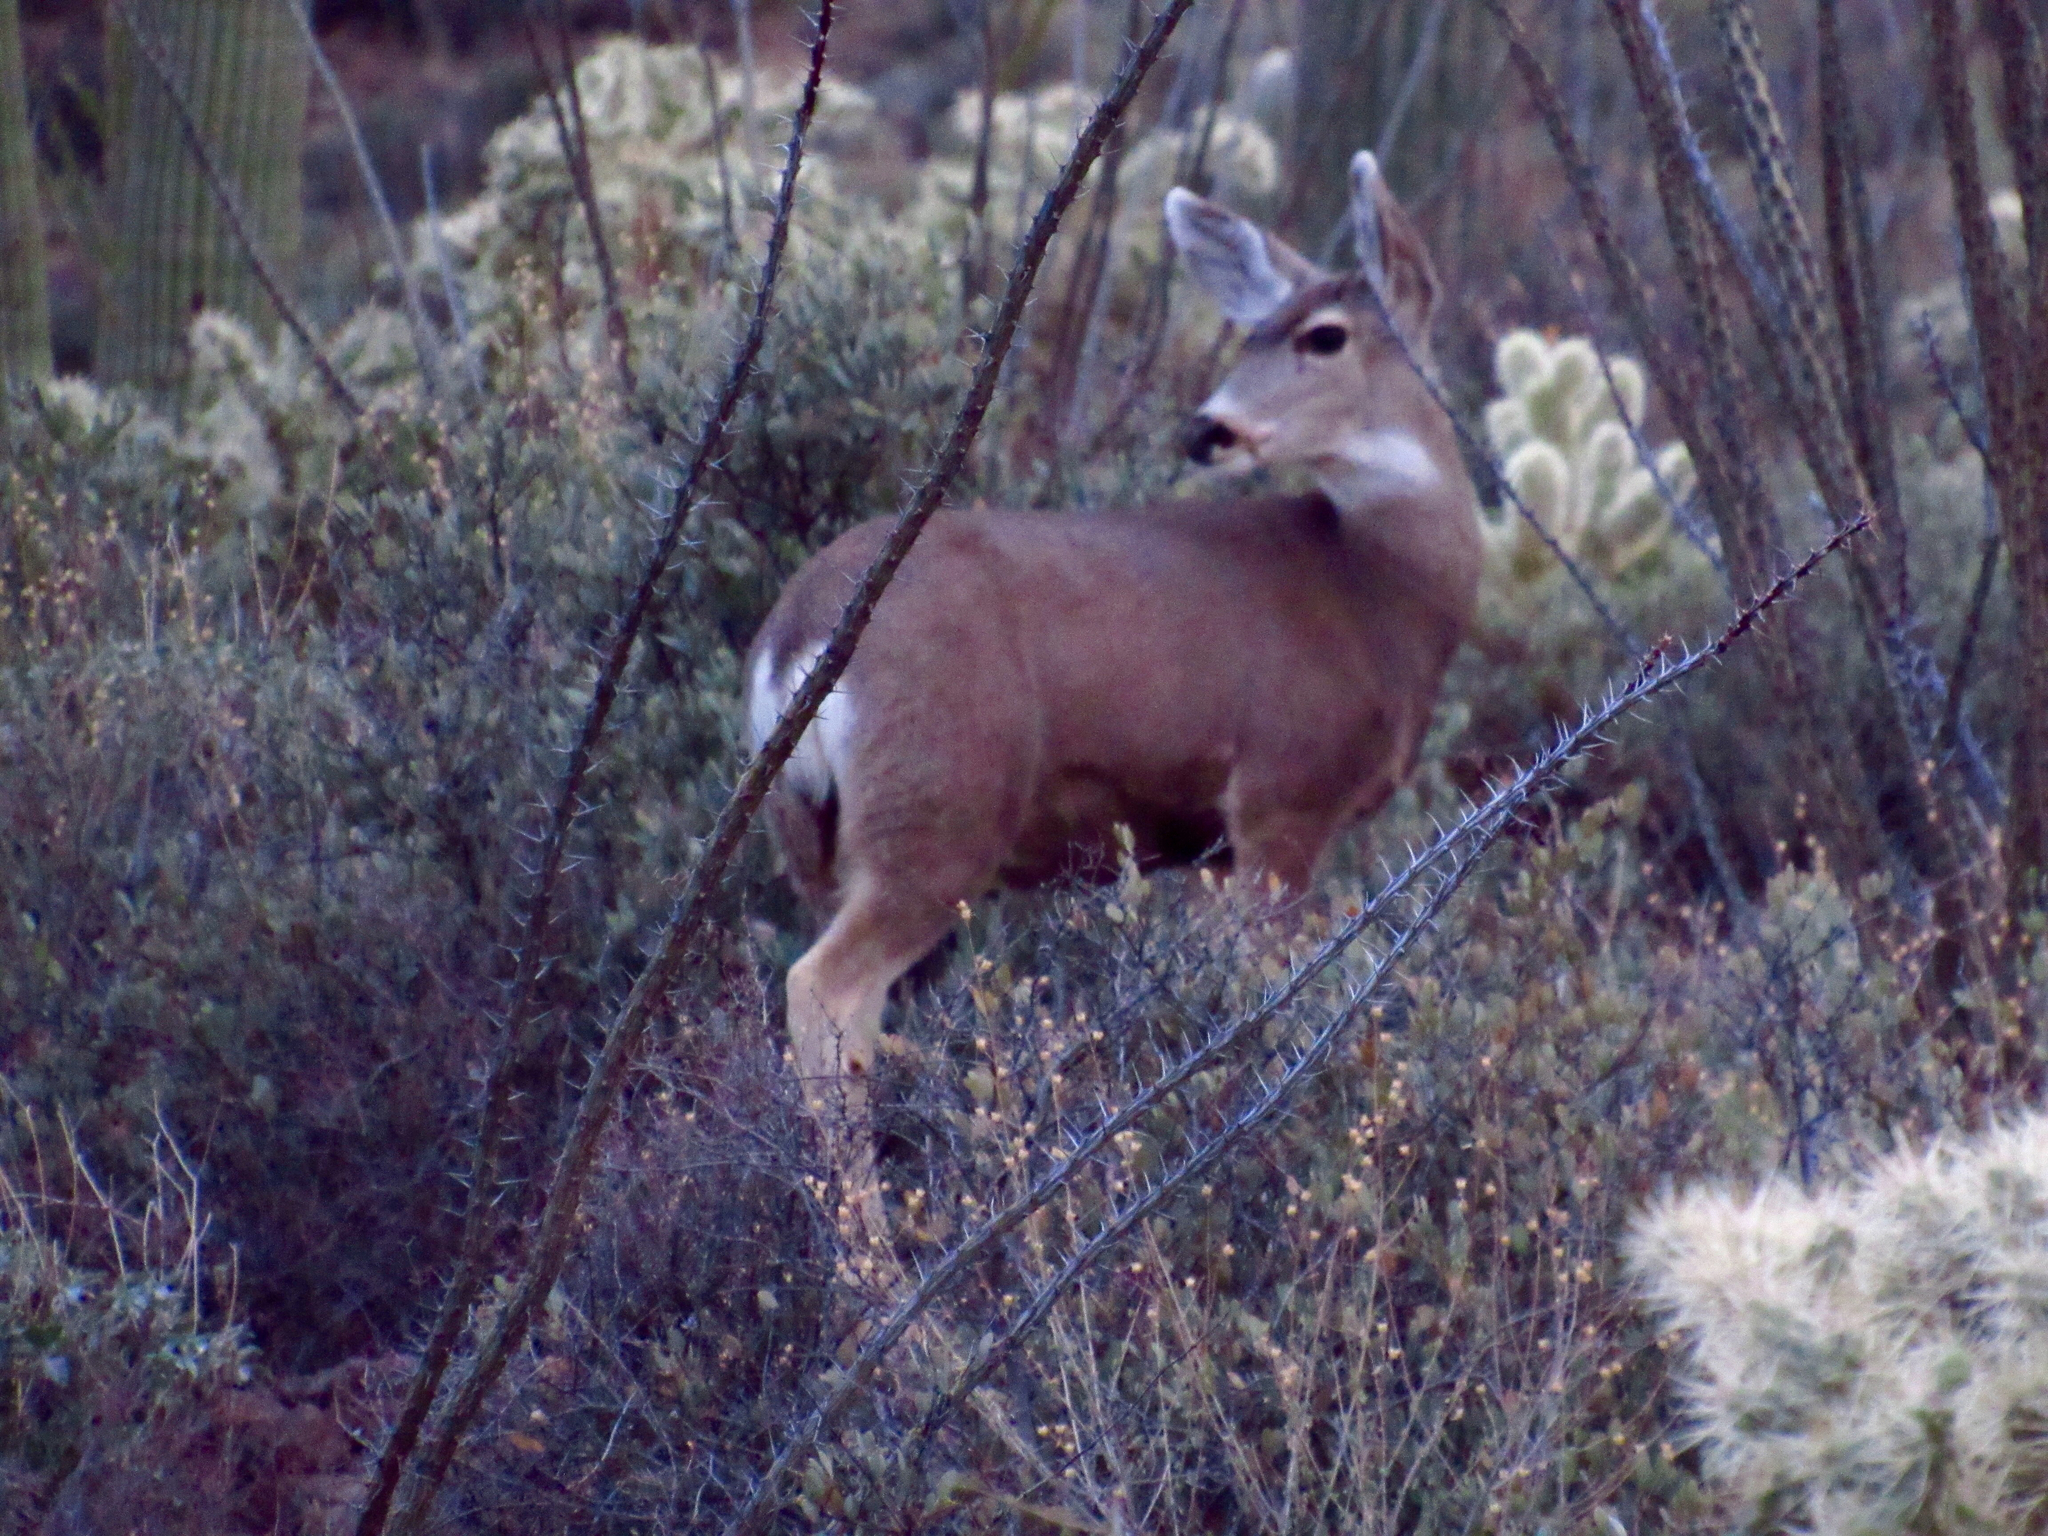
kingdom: Animalia
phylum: Chordata
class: Mammalia
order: Artiodactyla
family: Cervidae
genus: Odocoileus
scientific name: Odocoileus hemionus
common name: Mule deer
